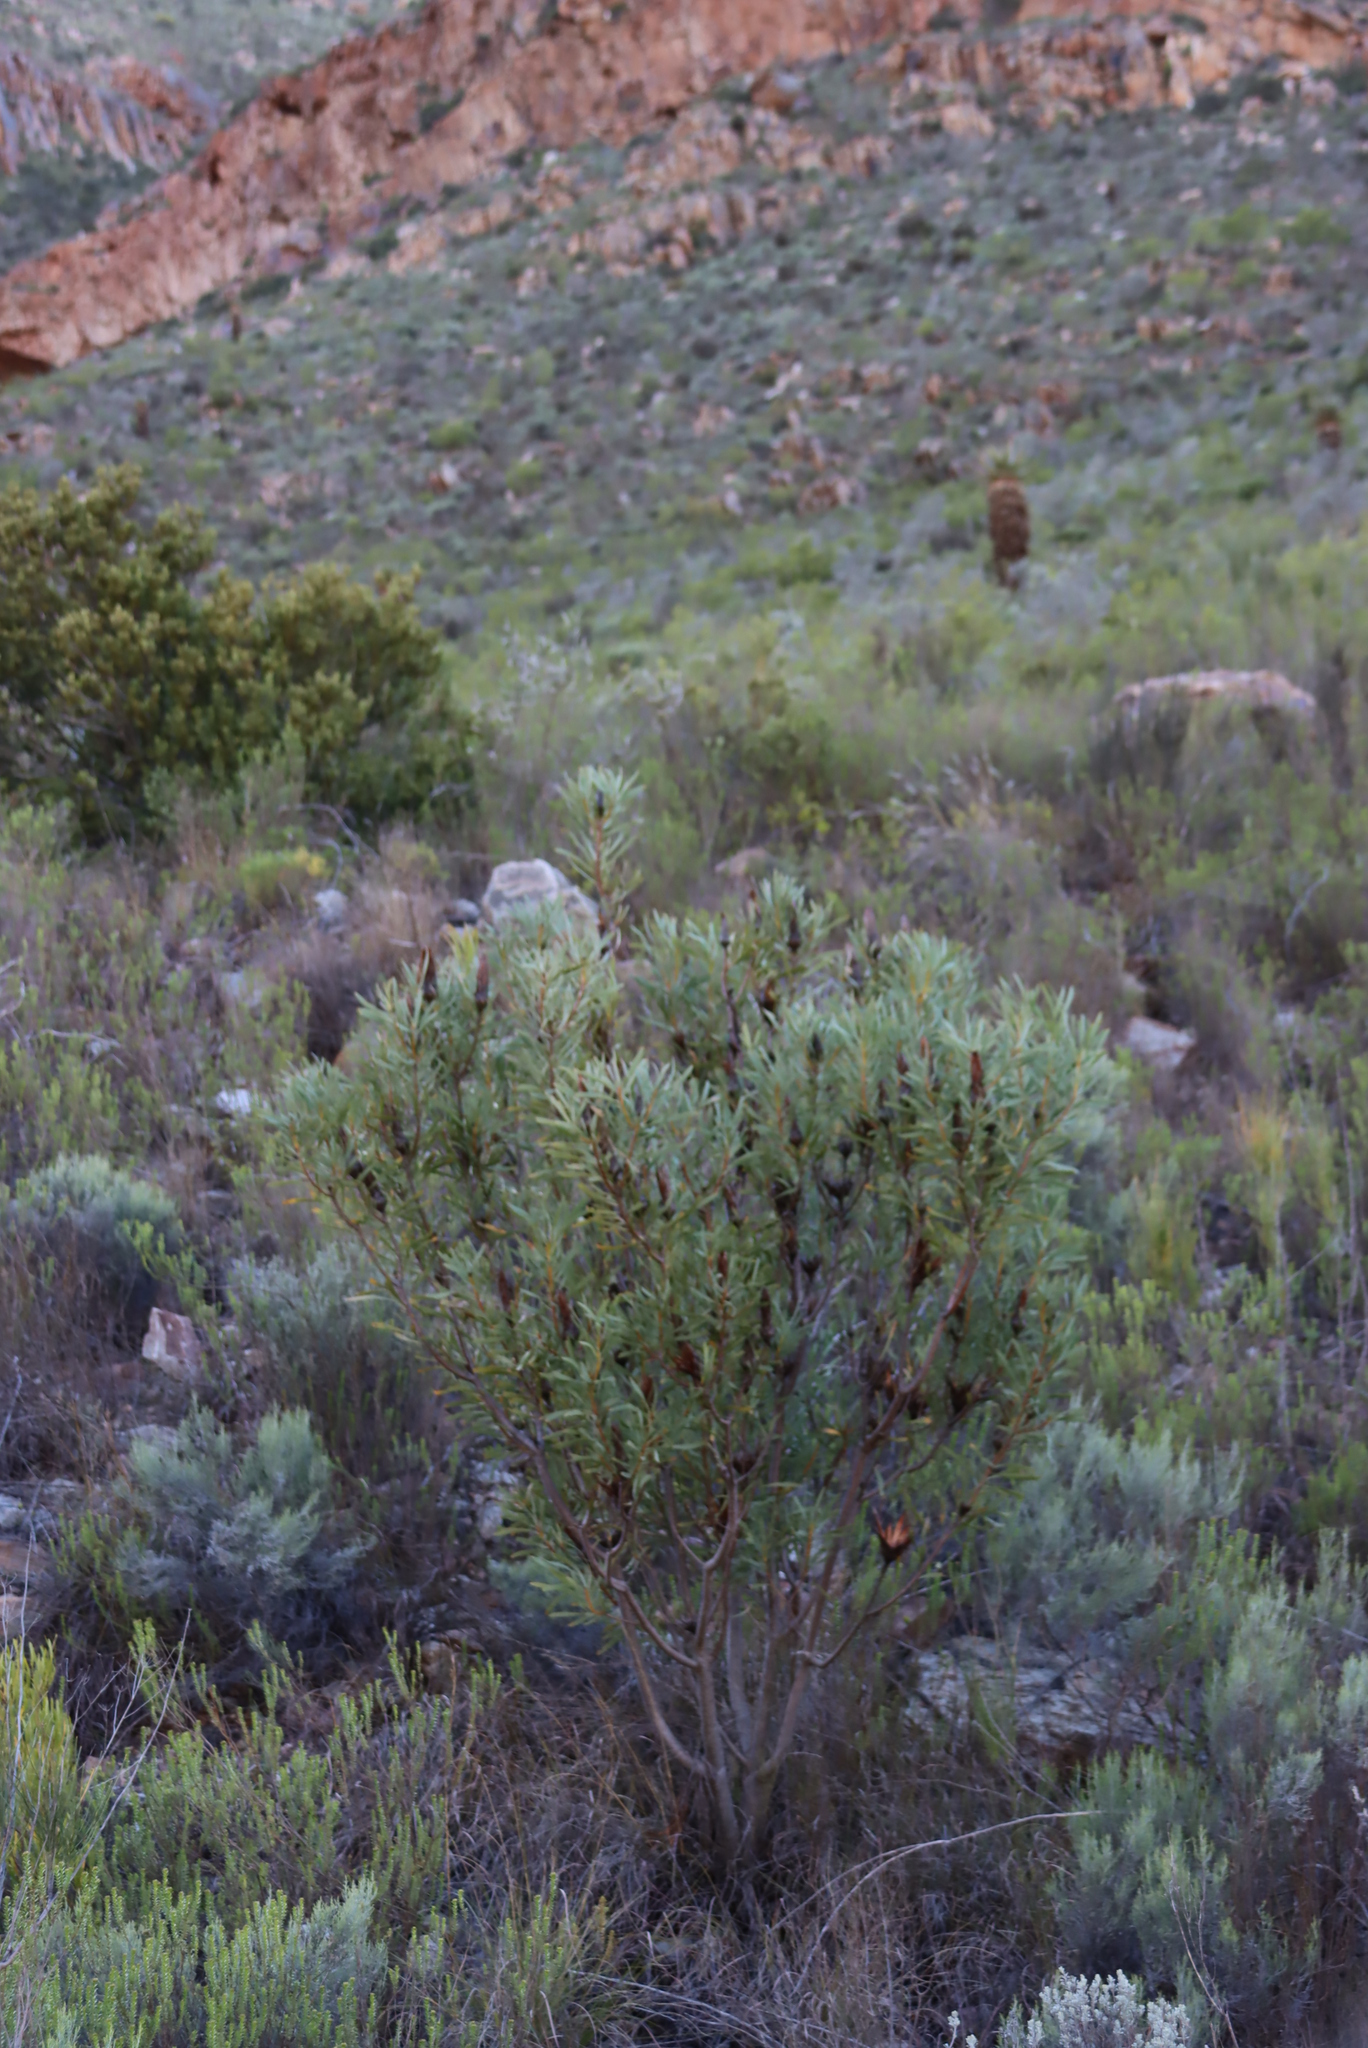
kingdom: Plantae
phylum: Tracheophyta
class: Magnoliopsida
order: Proteales
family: Proteaceae
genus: Protea
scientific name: Protea repens
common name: Sugarbush
